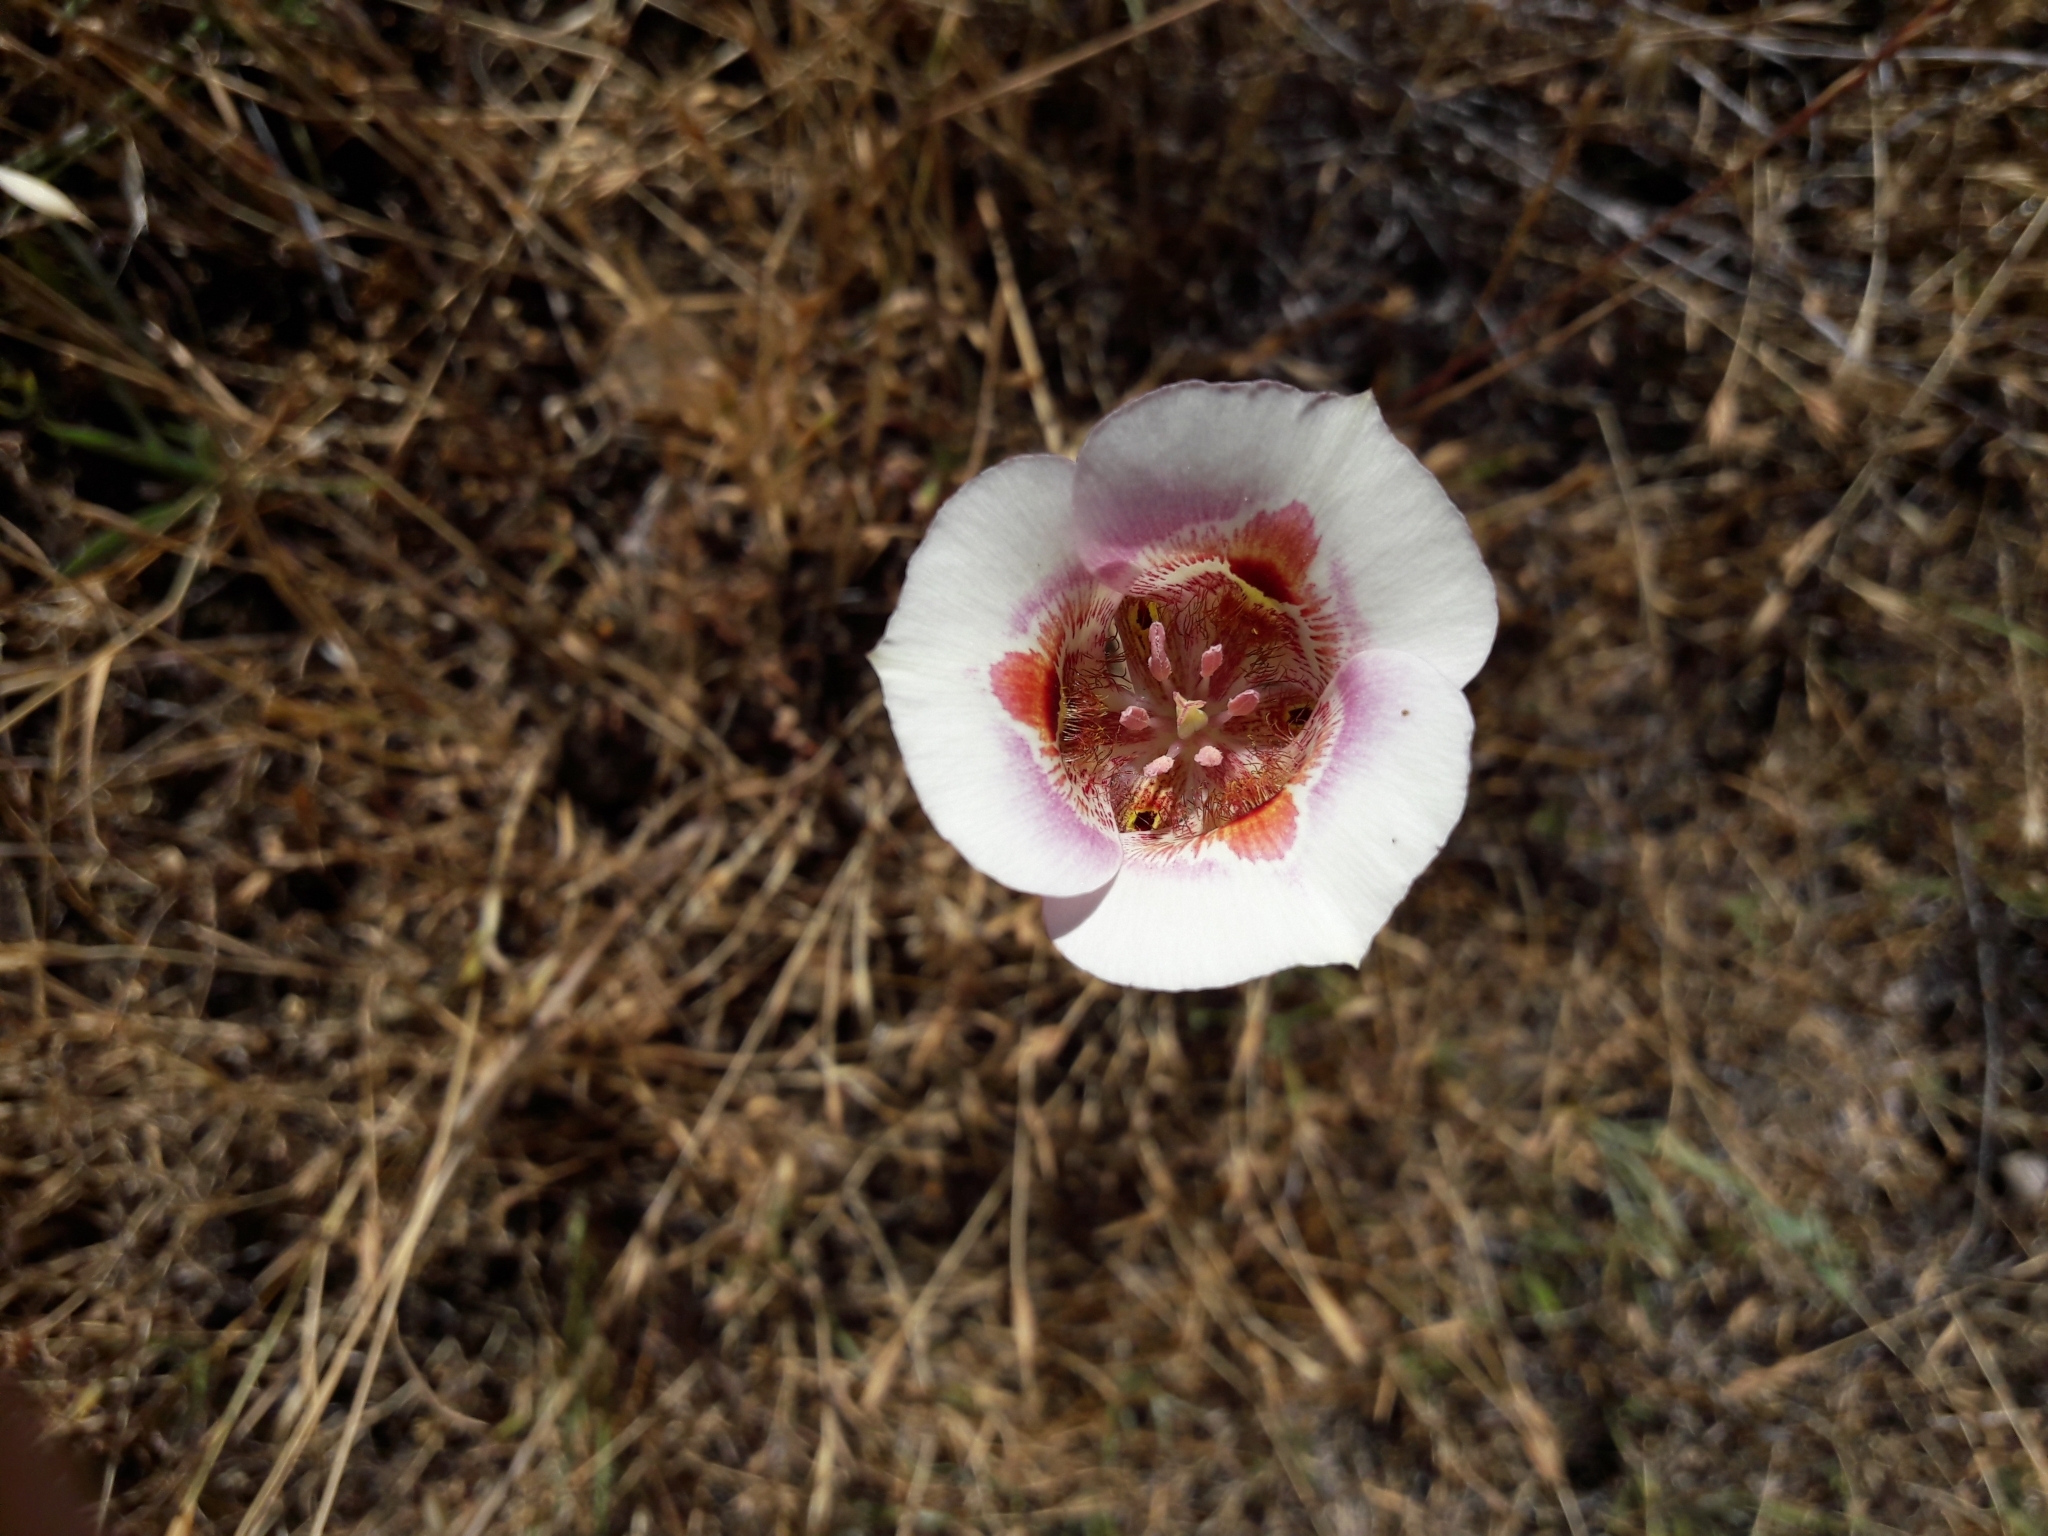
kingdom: Plantae
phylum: Tracheophyta
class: Liliopsida
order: Liliales
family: Liliaceae
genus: Calochortus
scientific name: Calochortus argillosus
